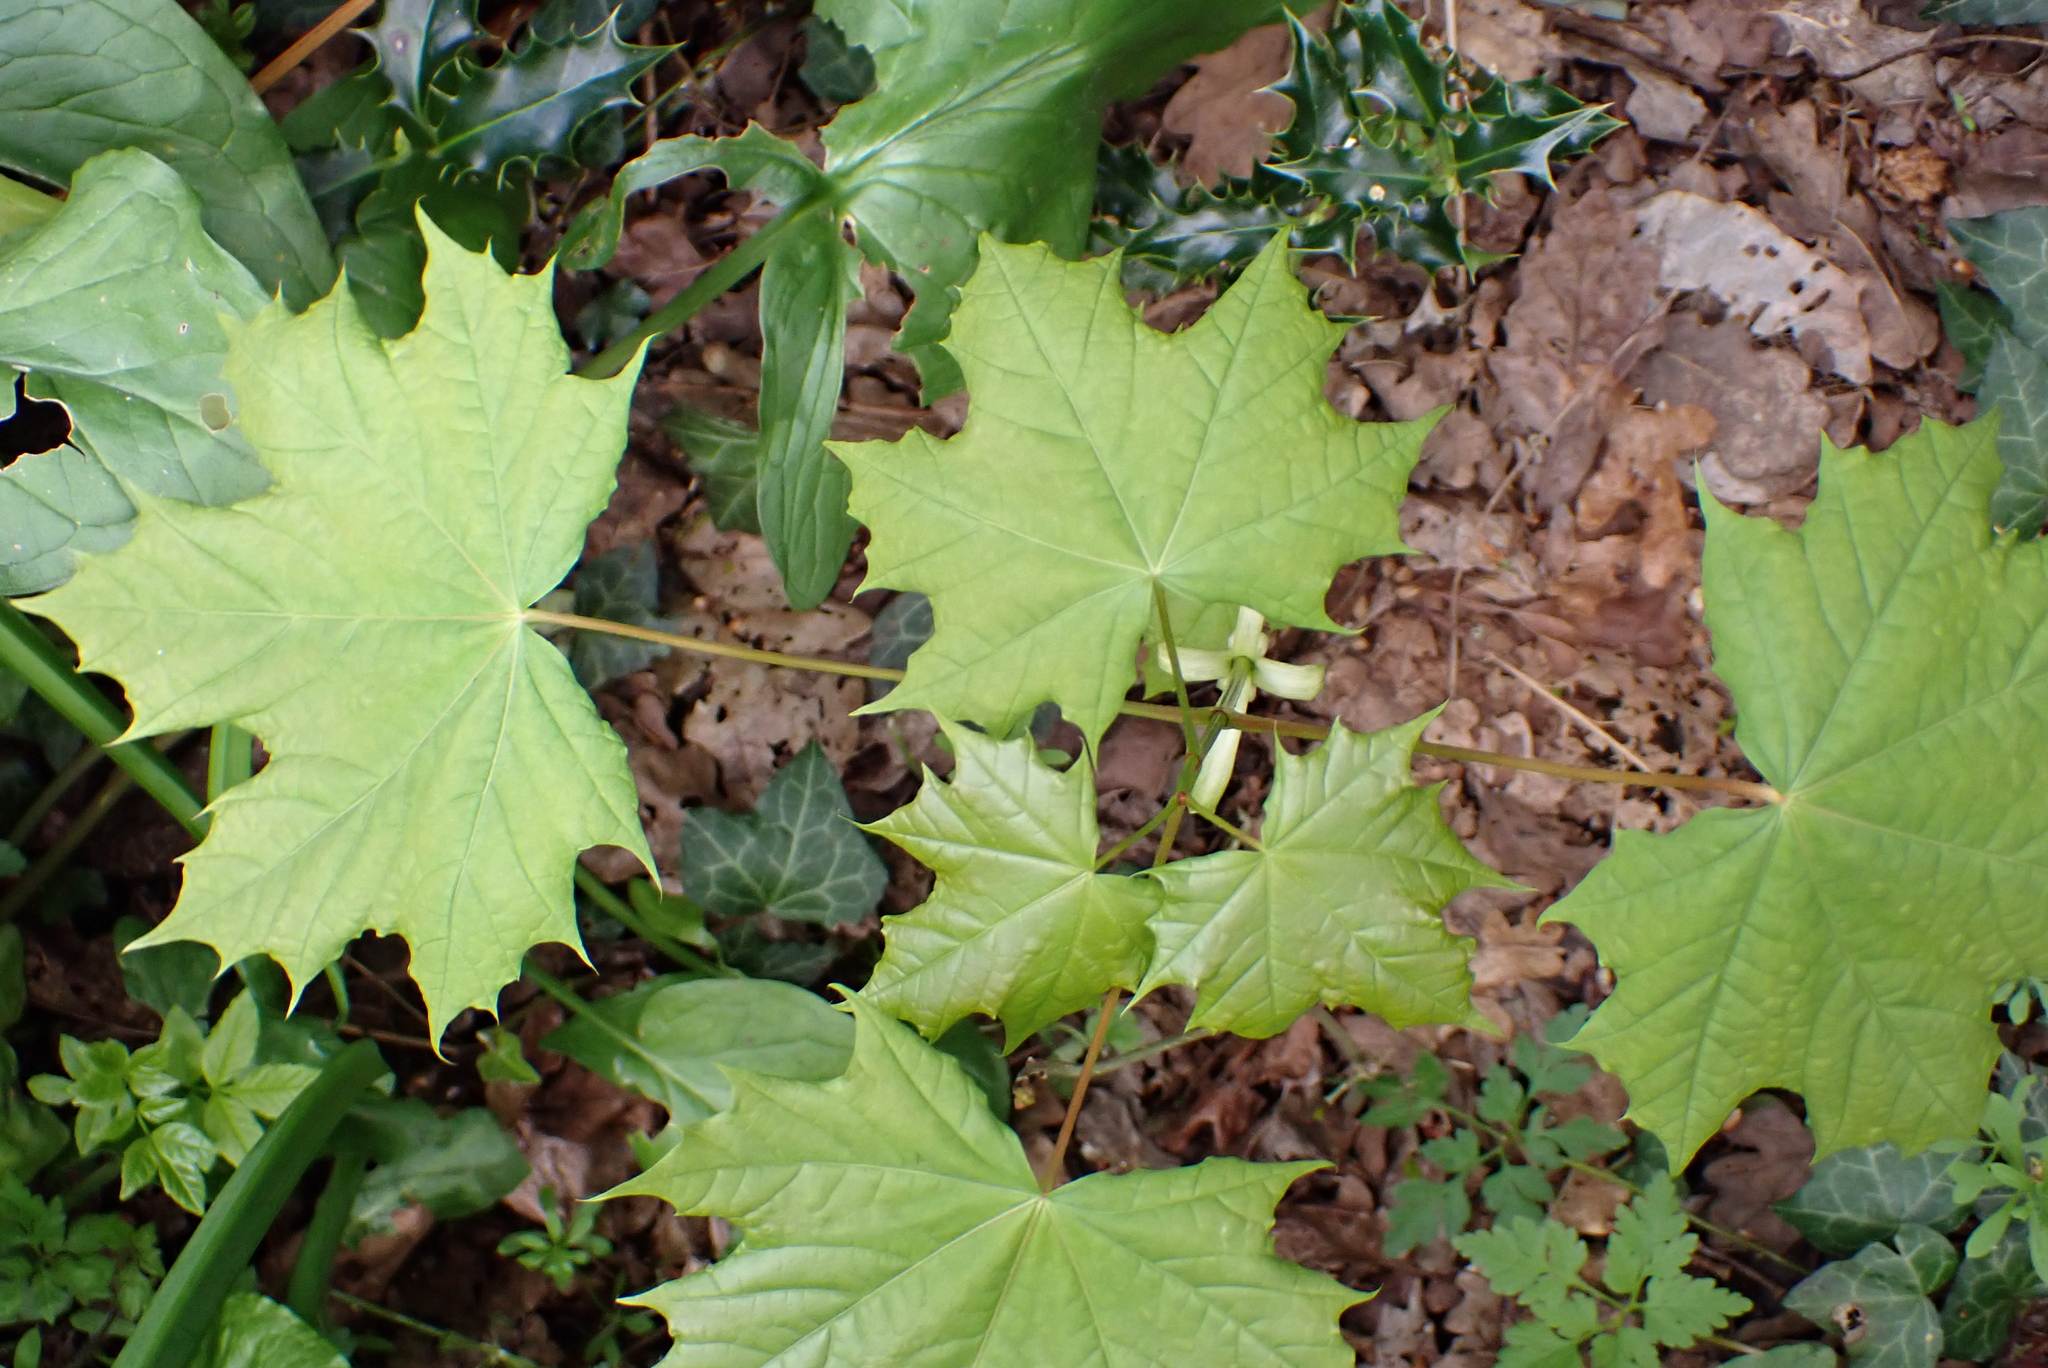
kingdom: Plantae
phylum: Tracheophyta
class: Magnoliopsida
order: Sapindales
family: Sapindaceae
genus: Acer
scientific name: Acer platanoides
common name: Norway maple
